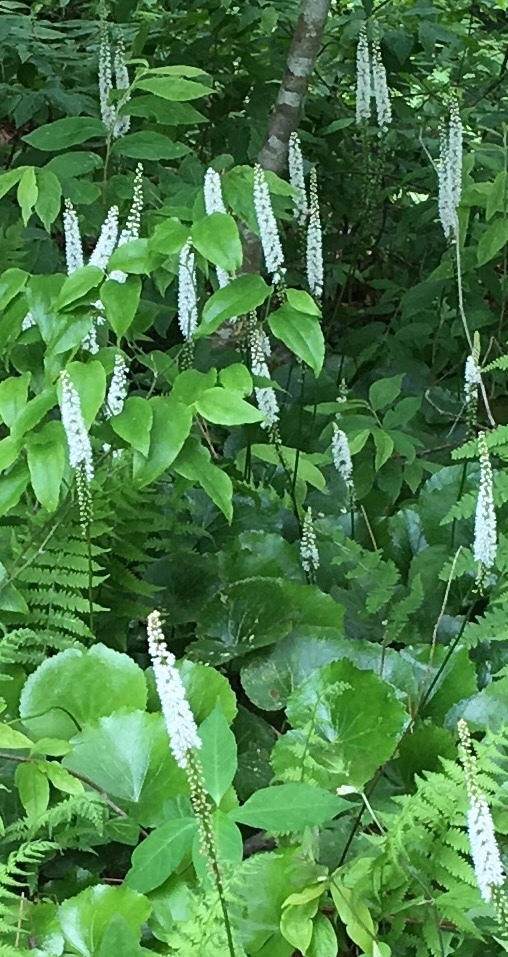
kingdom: Plantae
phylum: Tracheophyta
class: Magnoliopsida
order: Ericales
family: Diapensiaceae
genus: Galax
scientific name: Galax urceolata
